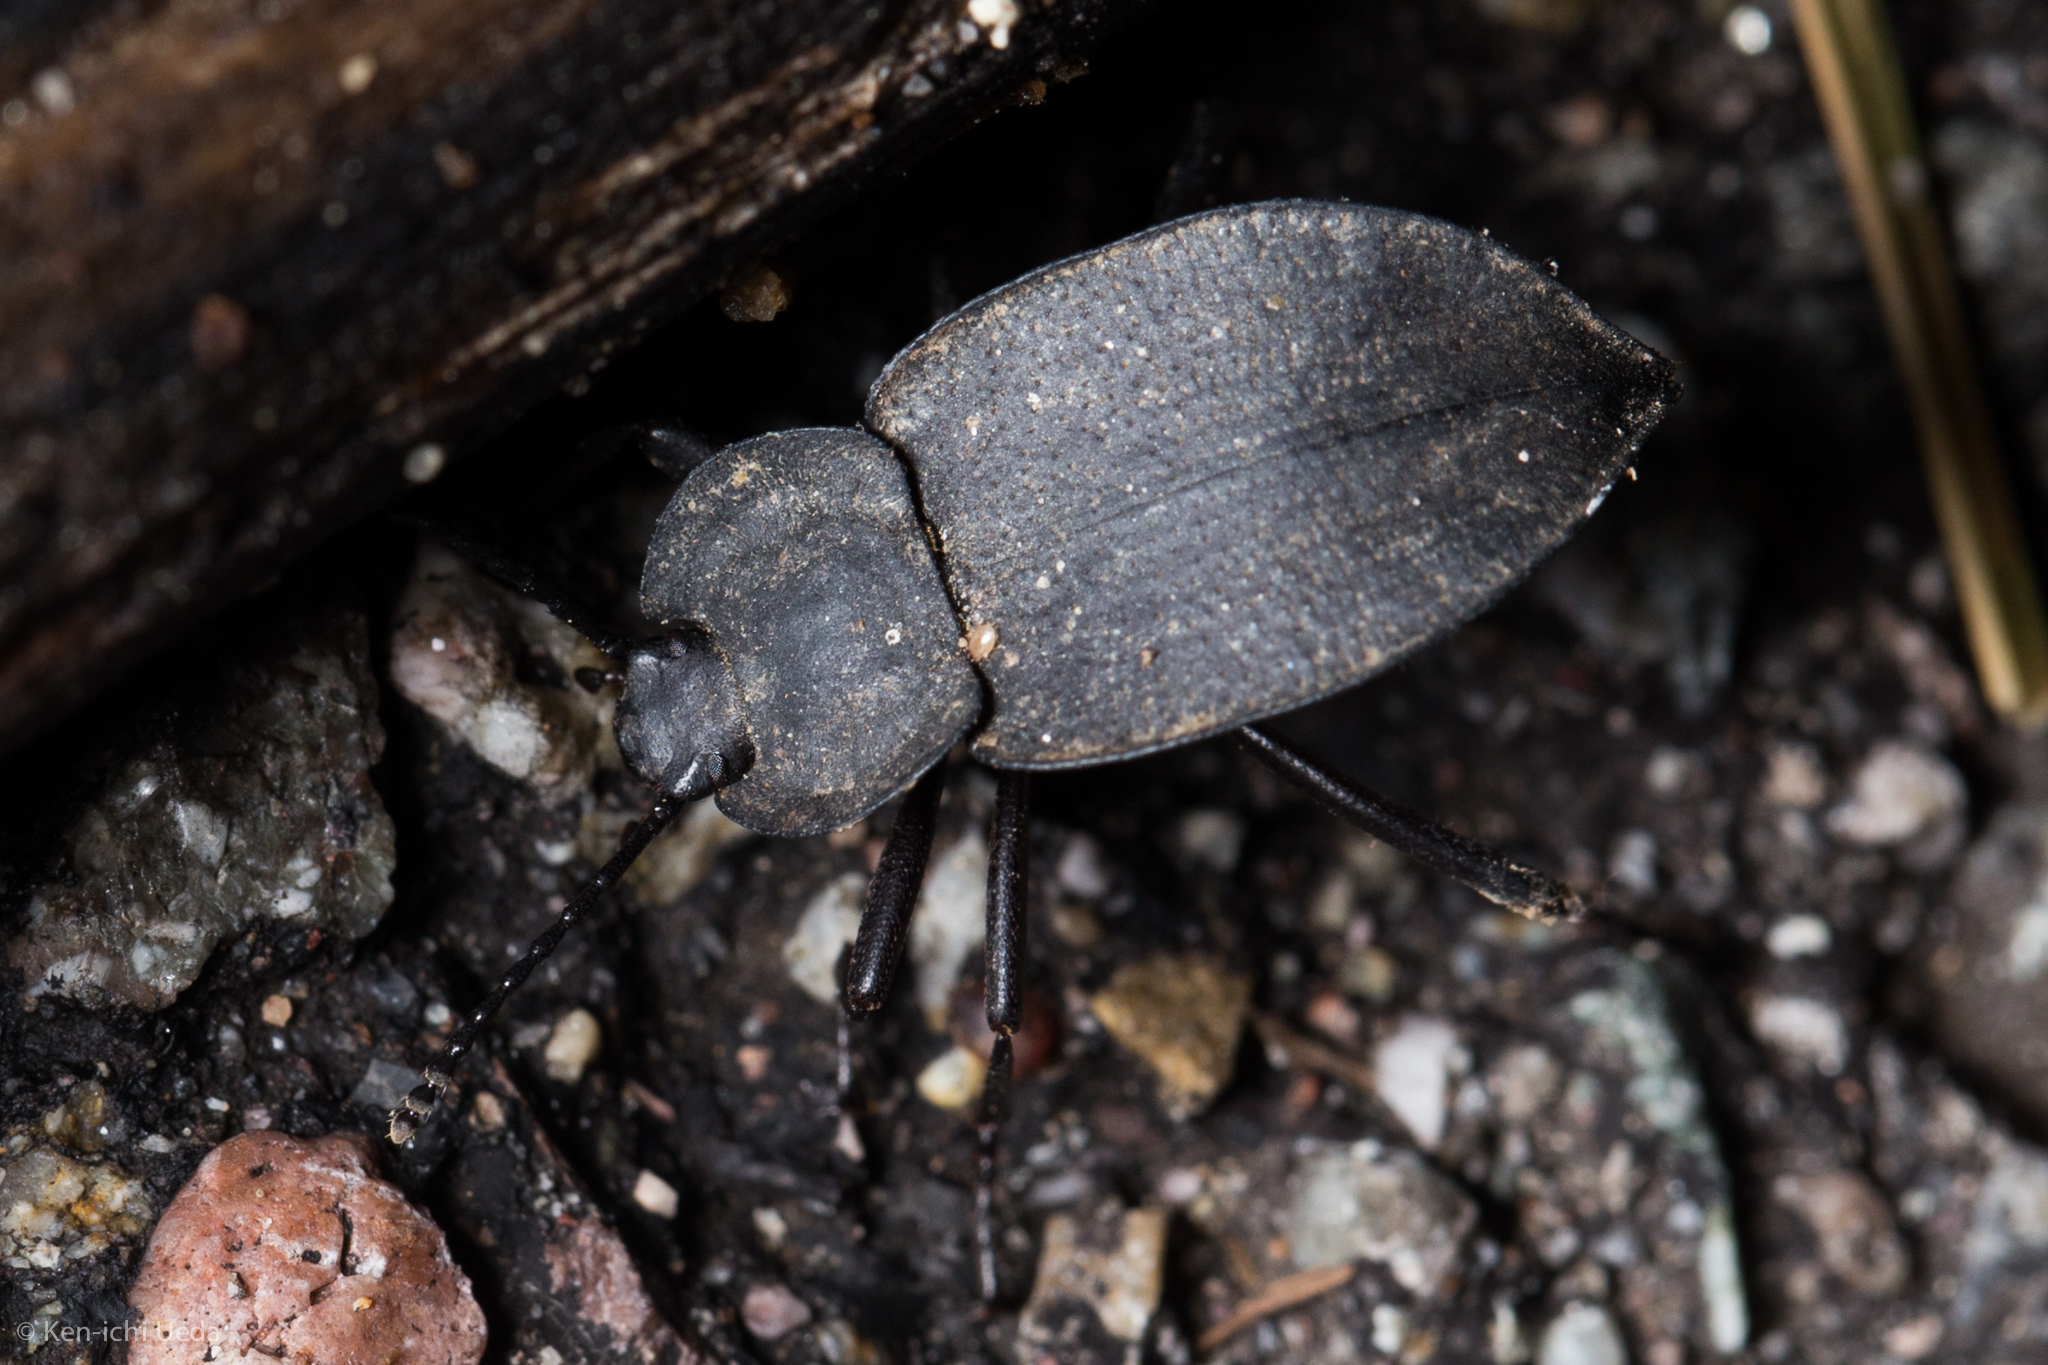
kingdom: Animalia
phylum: Arthropoda
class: Insecta
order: Coleoptera
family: Tenebrionidae
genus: Embaphion
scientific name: Embaphion contusum
